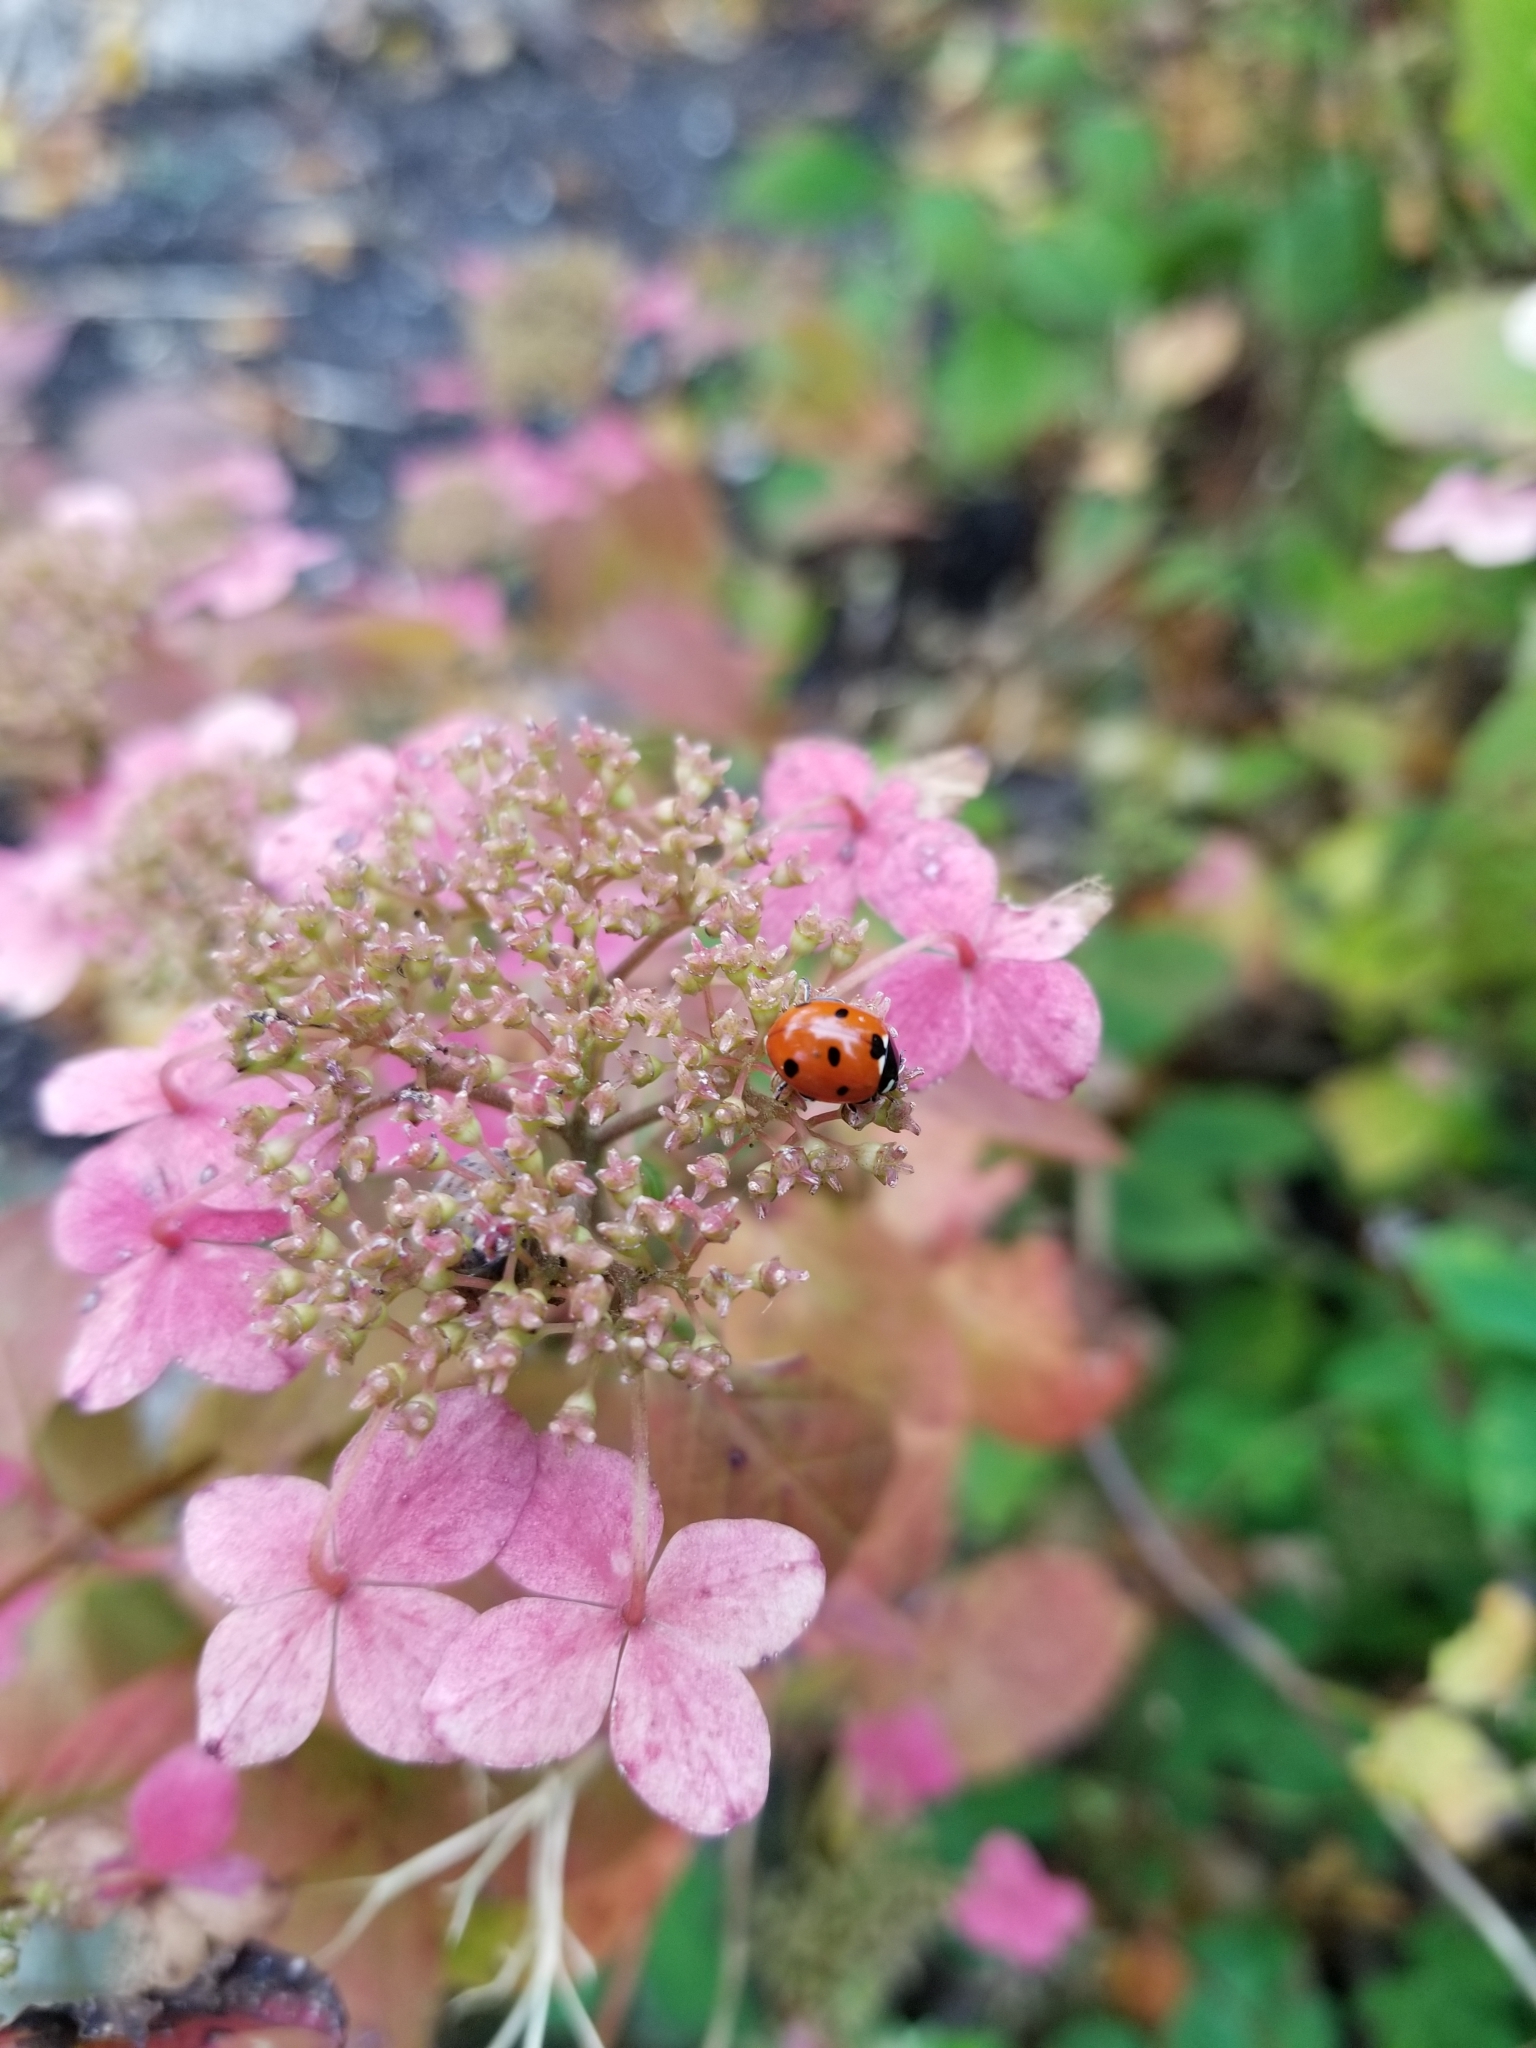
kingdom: Animalia
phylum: Arthropoda
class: Insecta
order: Coleoptera
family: Coccinellidae
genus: Coccinella
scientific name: Coccinella septempunctata
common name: Sevenspotted lady beetle
